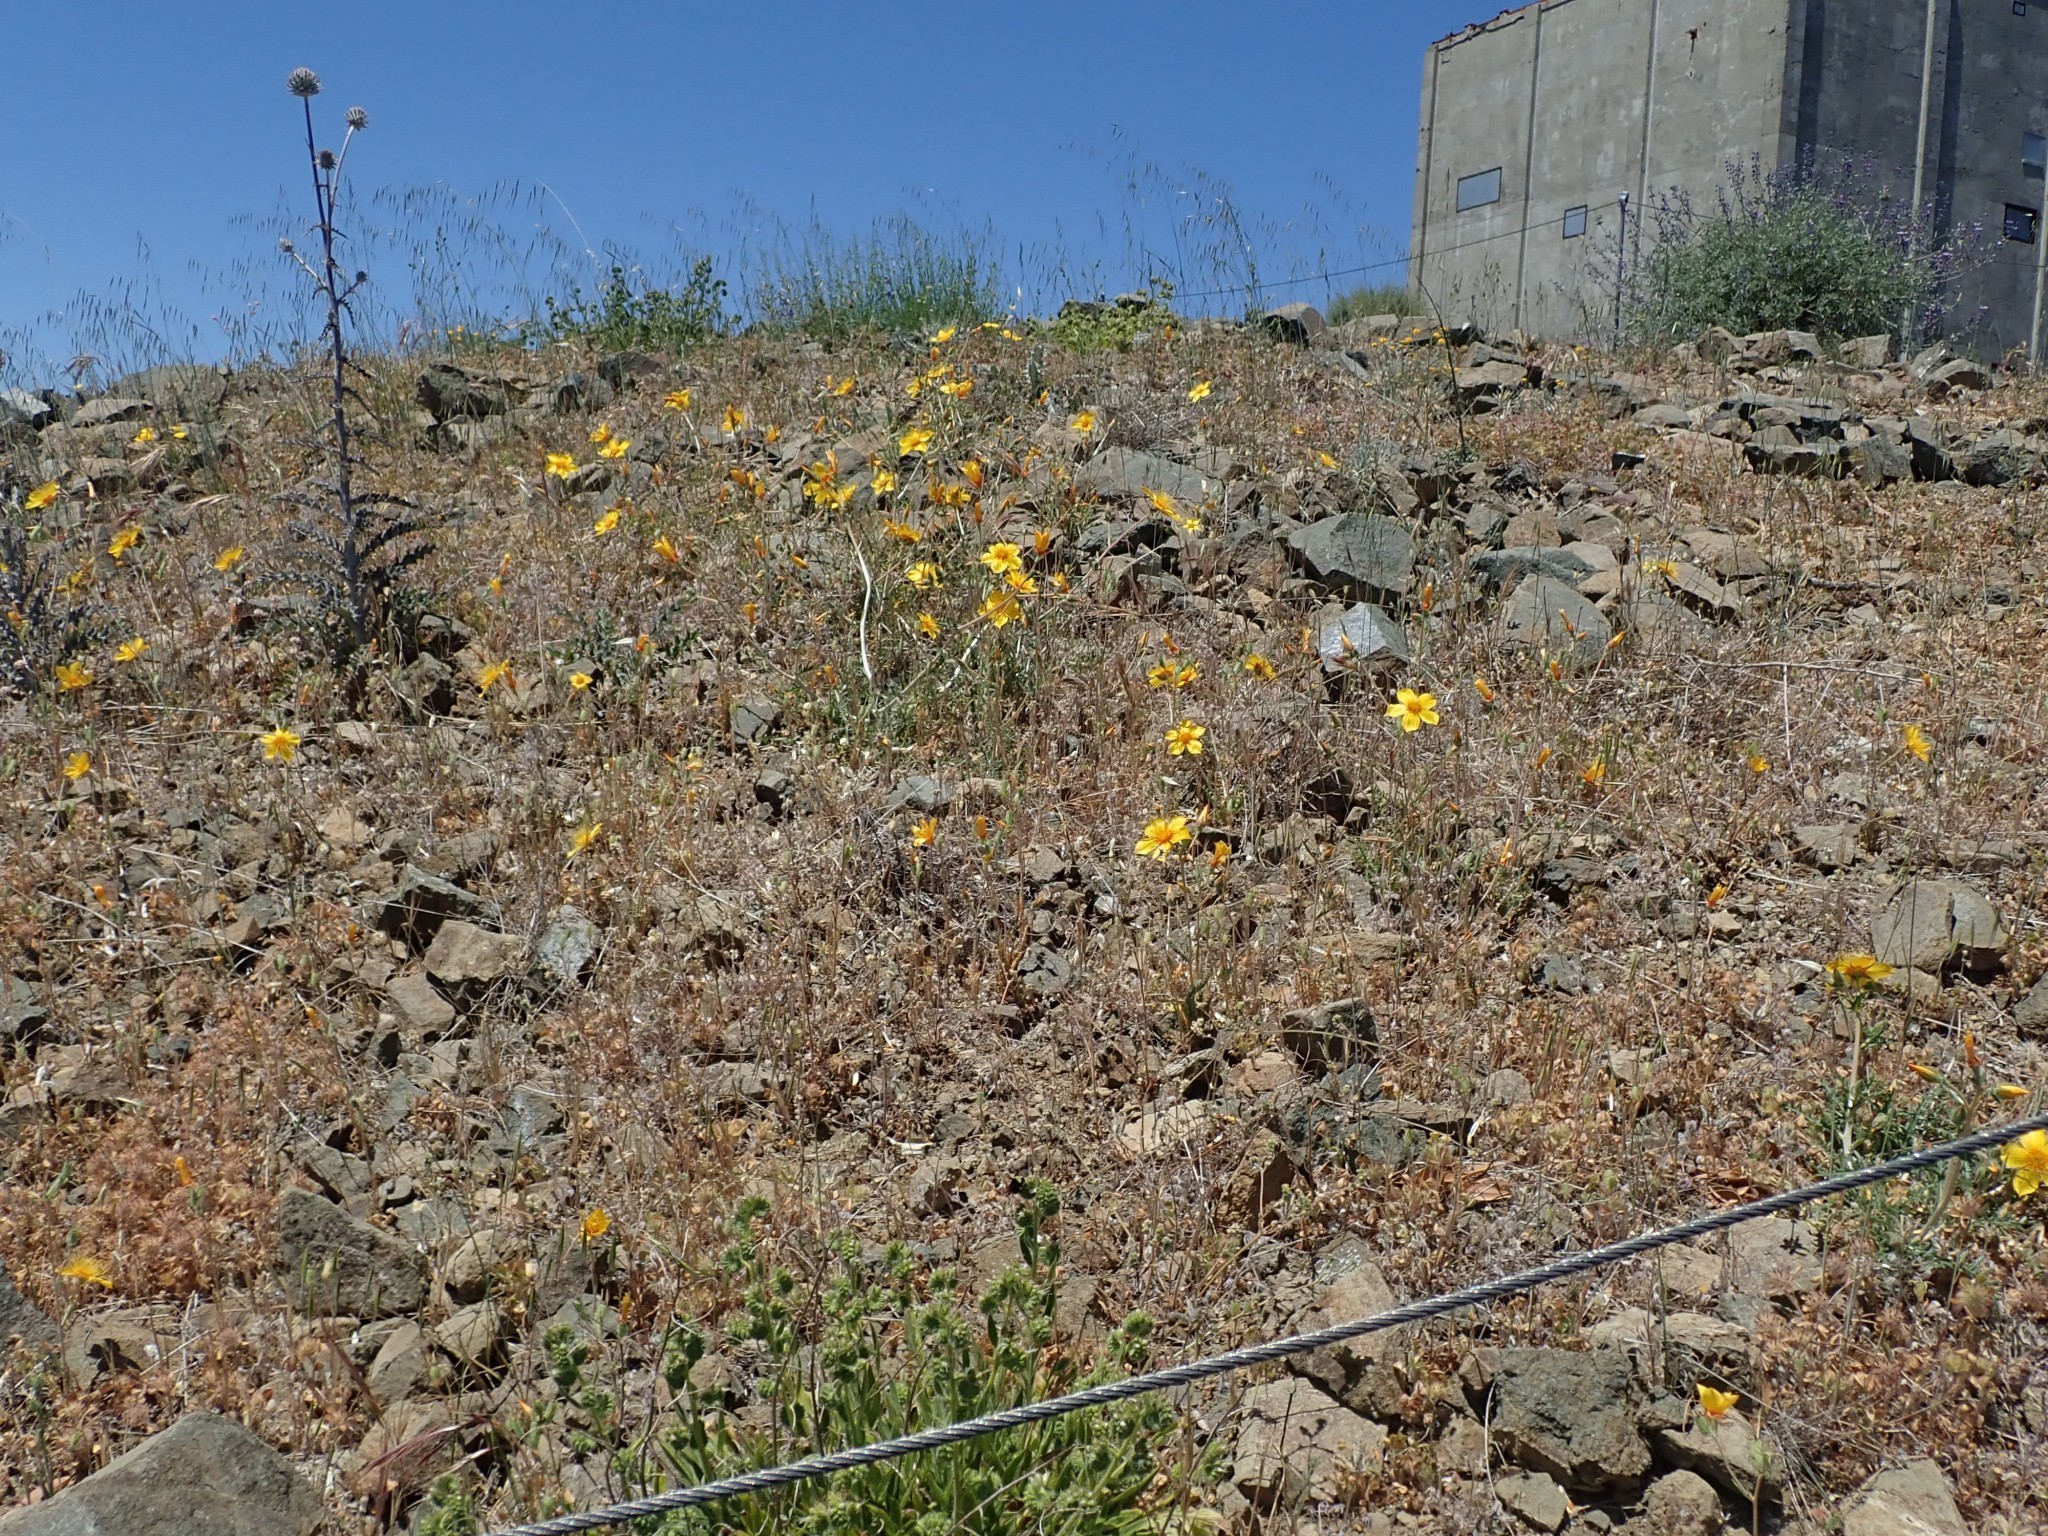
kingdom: Plantae
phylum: Tracheophyta
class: Magnoliopsida
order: Cornales
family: Loasaceae
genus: Mentzelia
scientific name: Mentzelia lindleyi
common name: Golden bartonia
